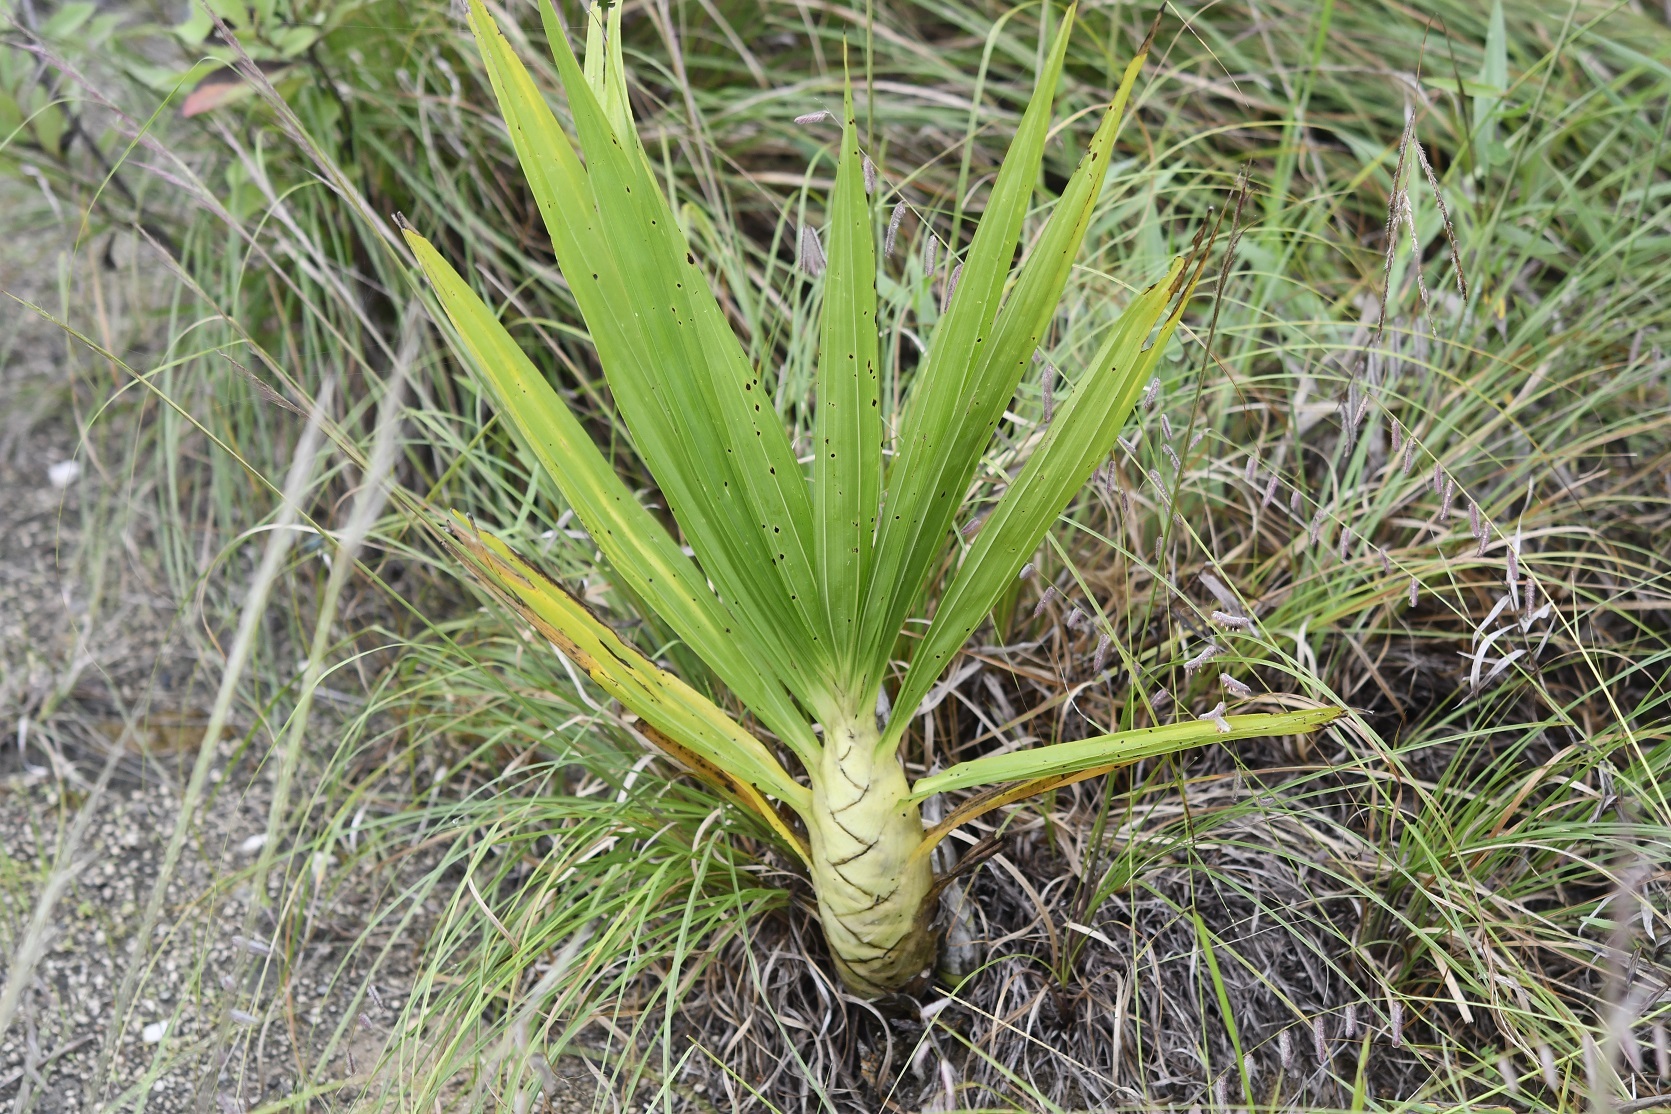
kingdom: Plantae
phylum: Tracheophyta
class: Liliopsida
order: Asparagales
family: Orchidaceae
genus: Cyrtopodium
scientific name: Cyrtopodium macrobulbon
